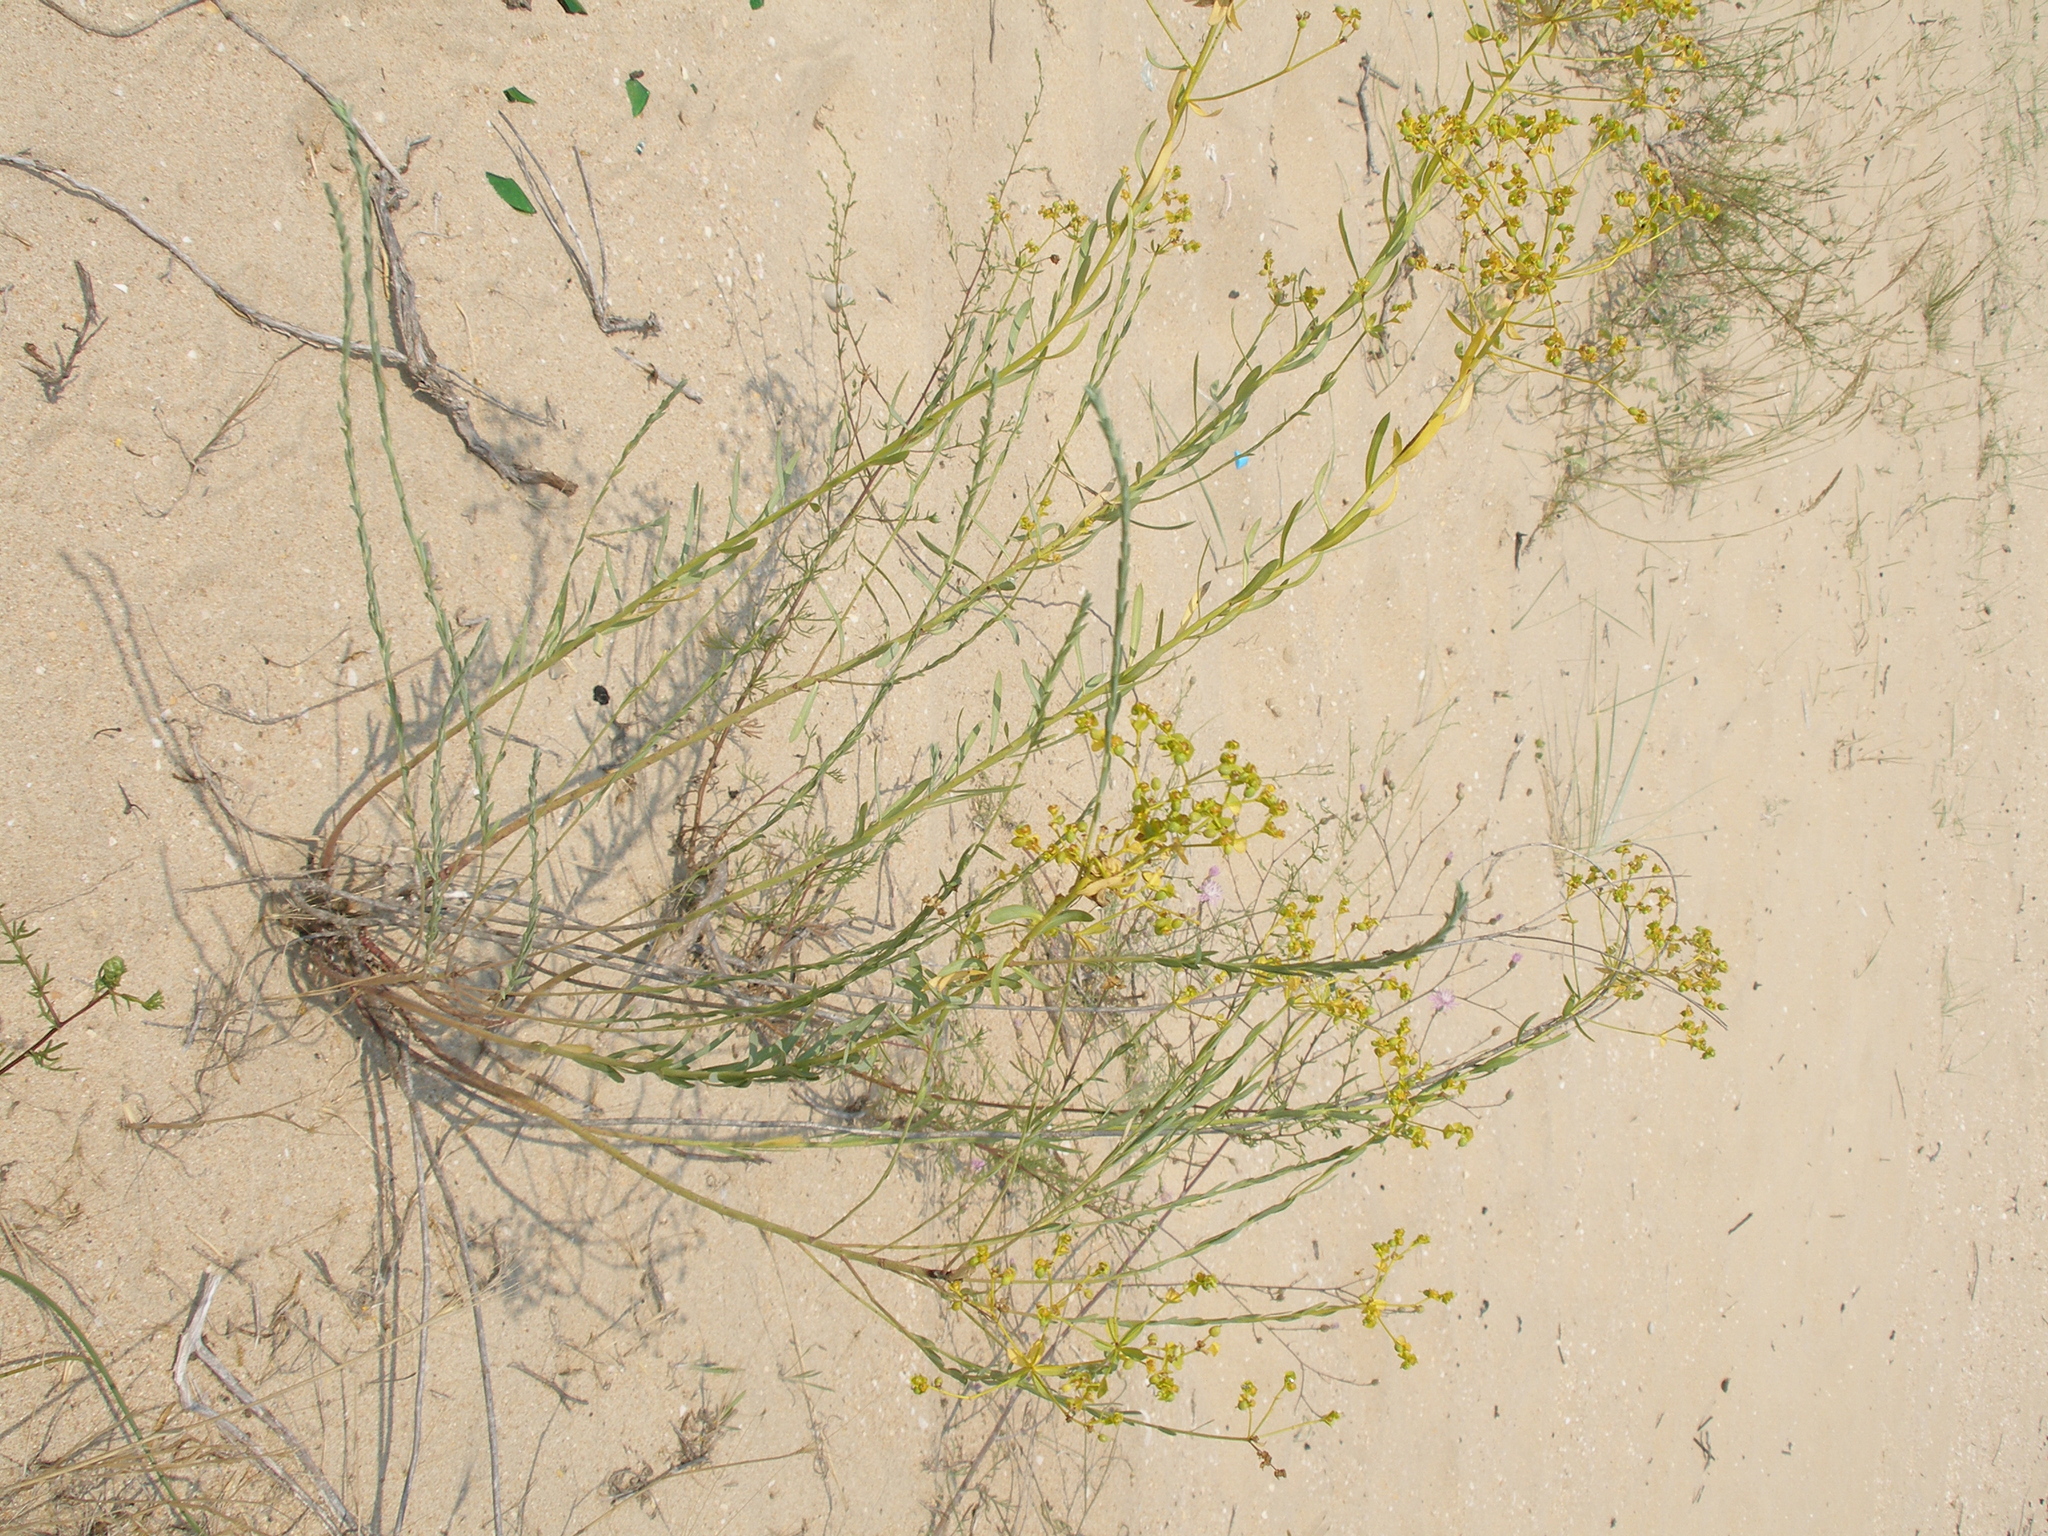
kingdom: Plantae
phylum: Tracheophyta
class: Magnoliopsida
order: Malpighiales
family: Euphorbiaceae
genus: Euphorbia
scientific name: Euphorbia seguieriana
